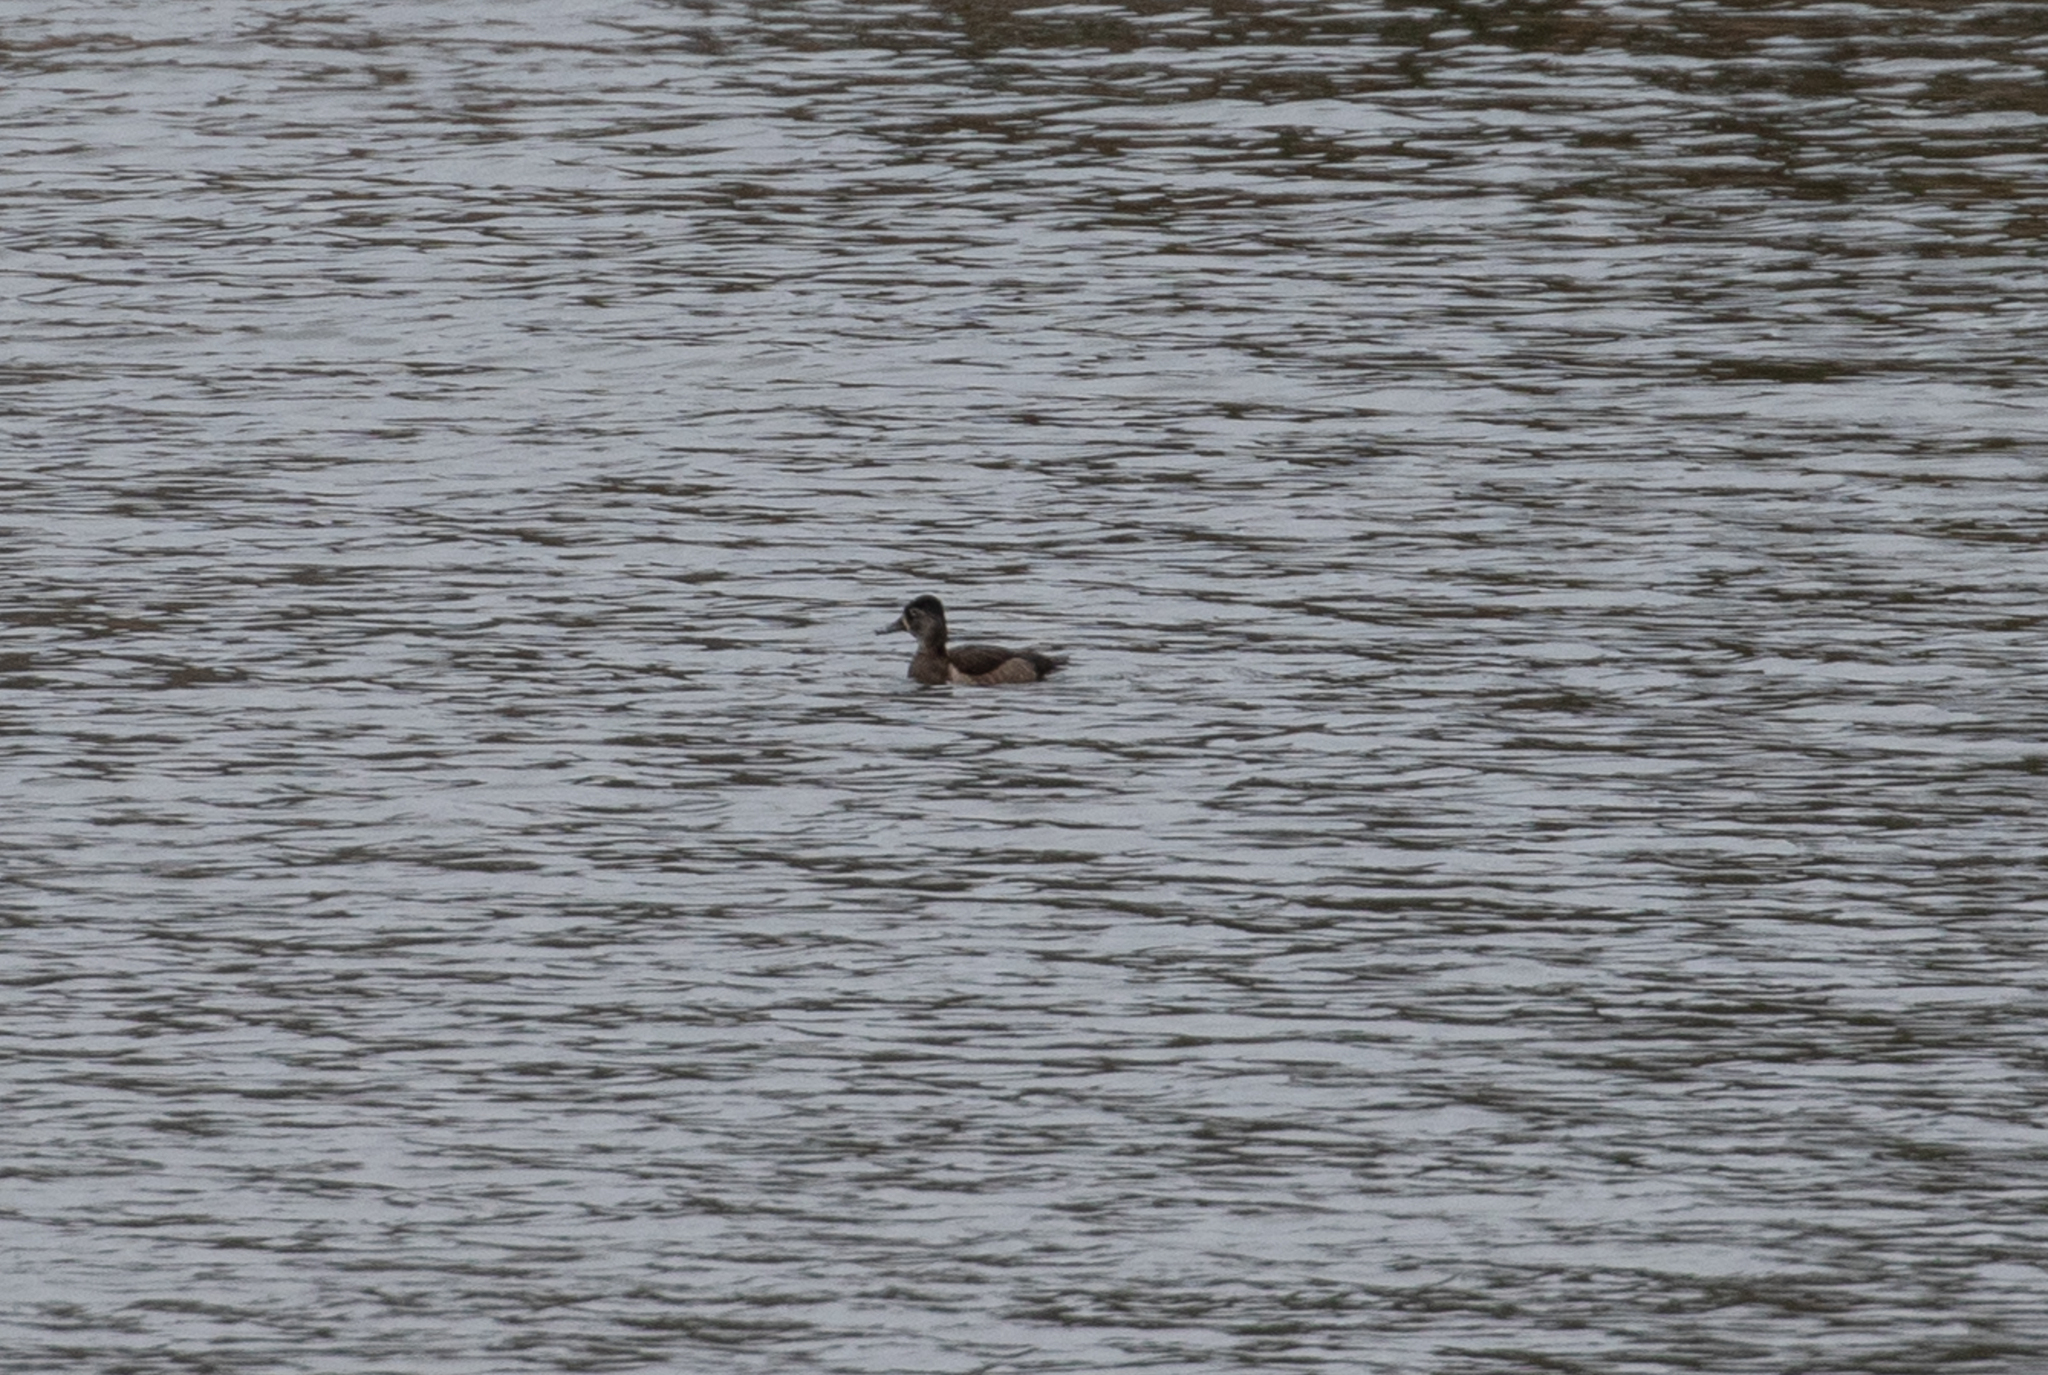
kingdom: Animalia
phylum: Chordata
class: Aves
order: Anseriformes
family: Anatidae
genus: Aythya
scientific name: Aythya collaris
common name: Ring-necked duck
